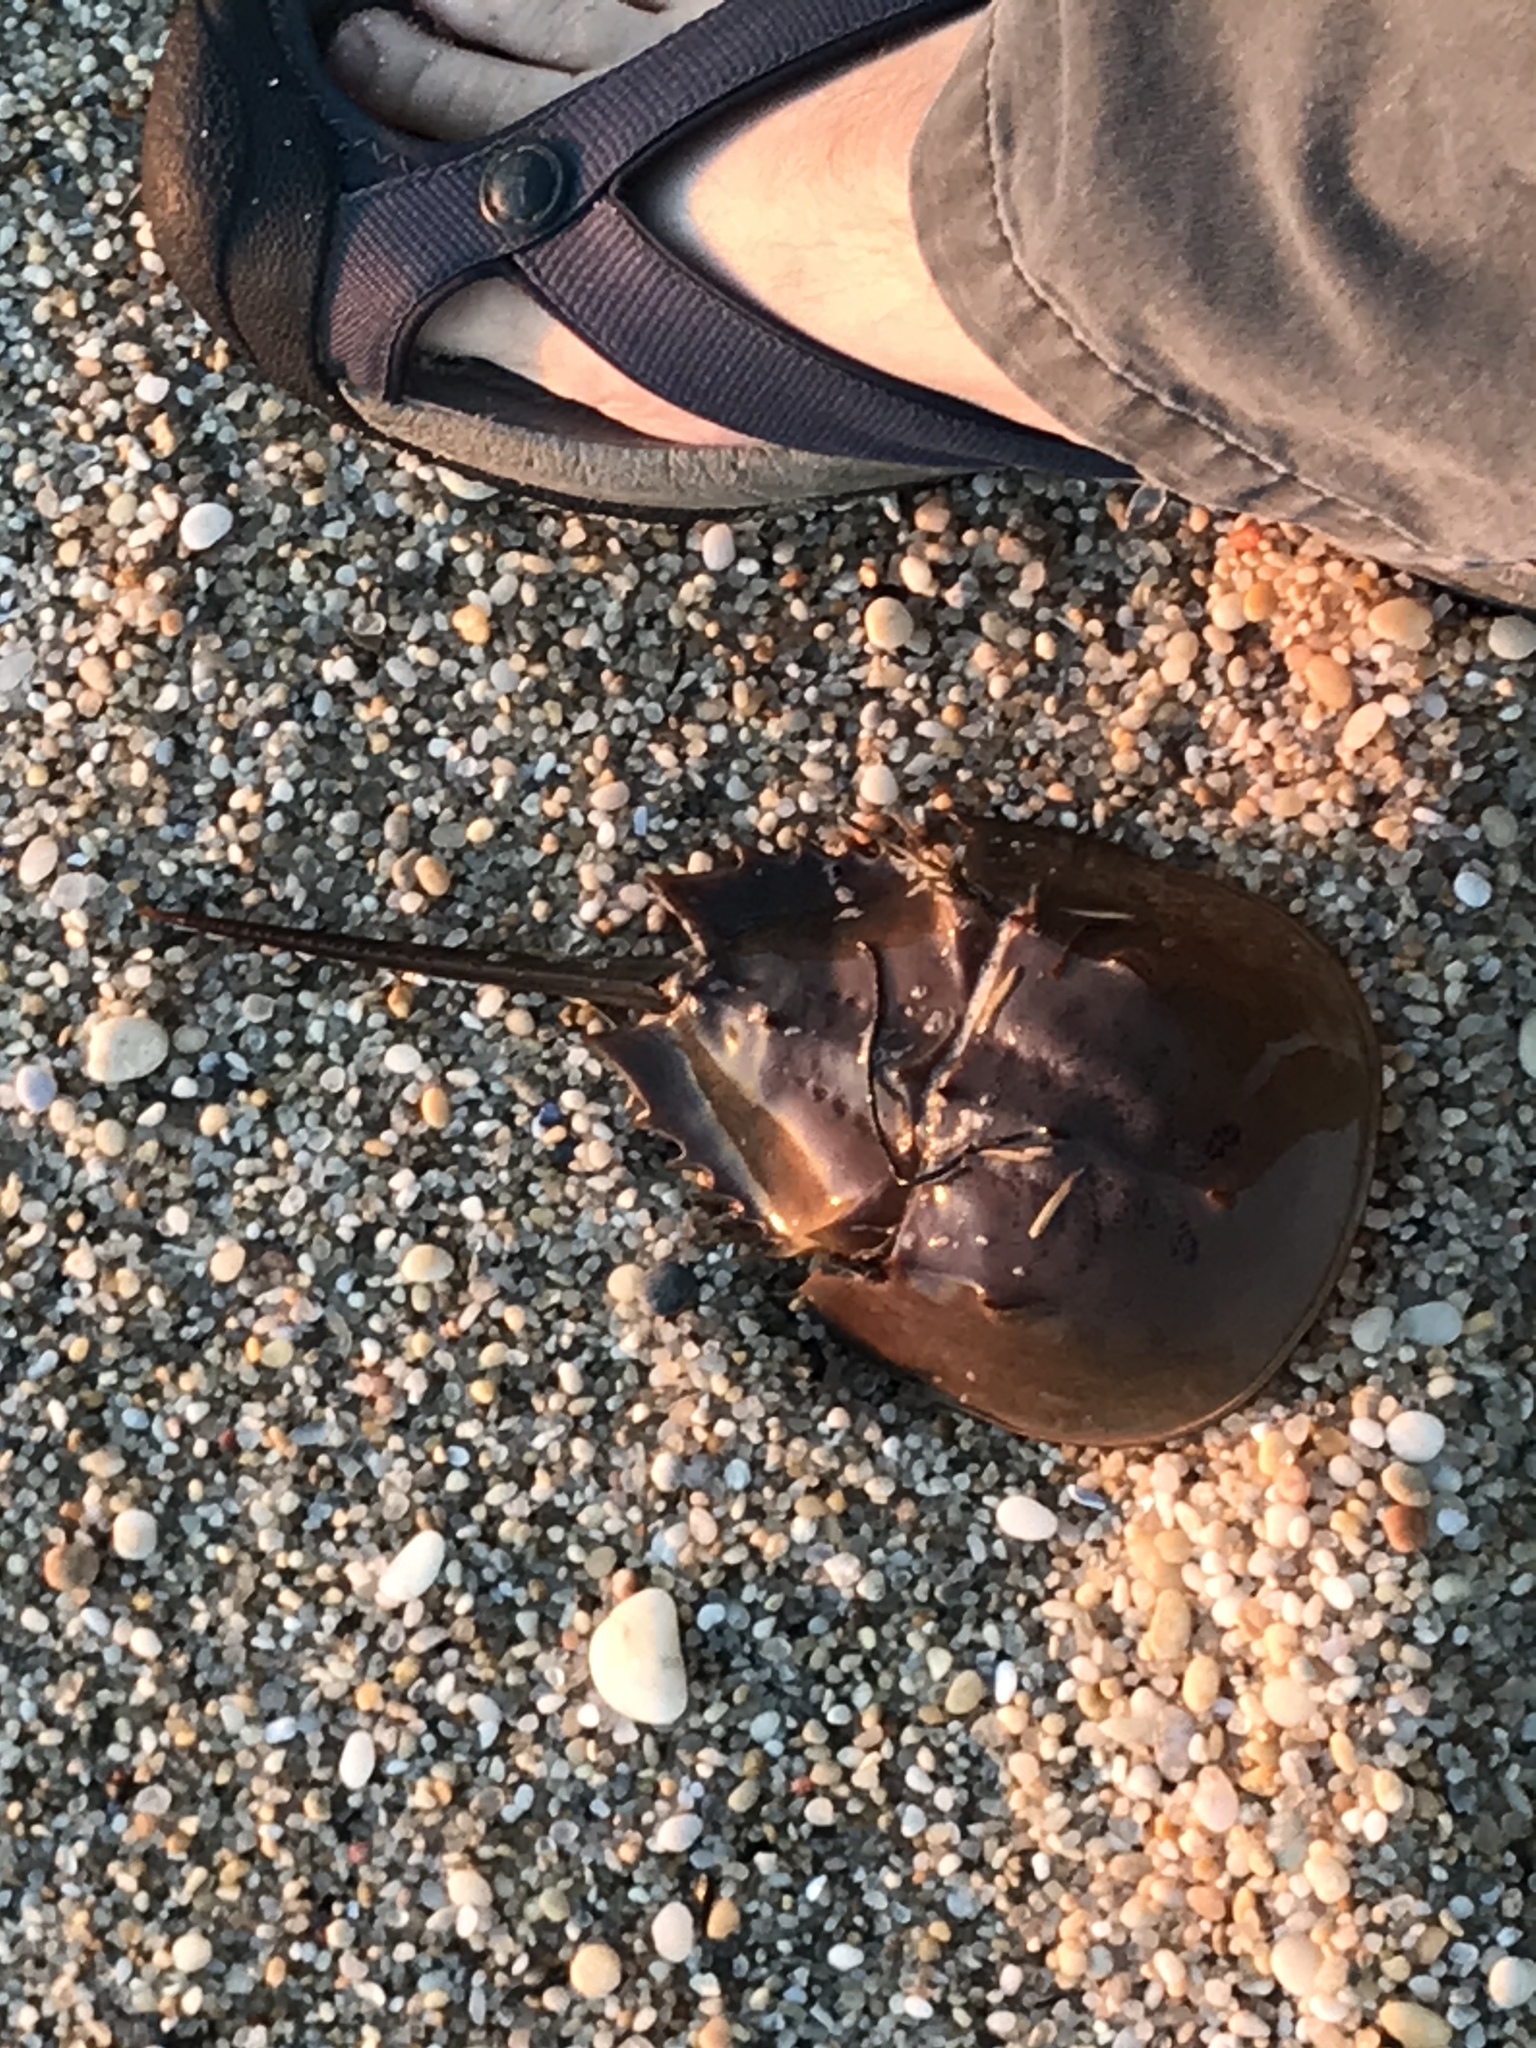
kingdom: Animalia
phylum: Arthropoda
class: Merostomata
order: Xiphosurida
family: Limulidae
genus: Limulus
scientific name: Limulus polyphemus
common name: Horseshoe crab
